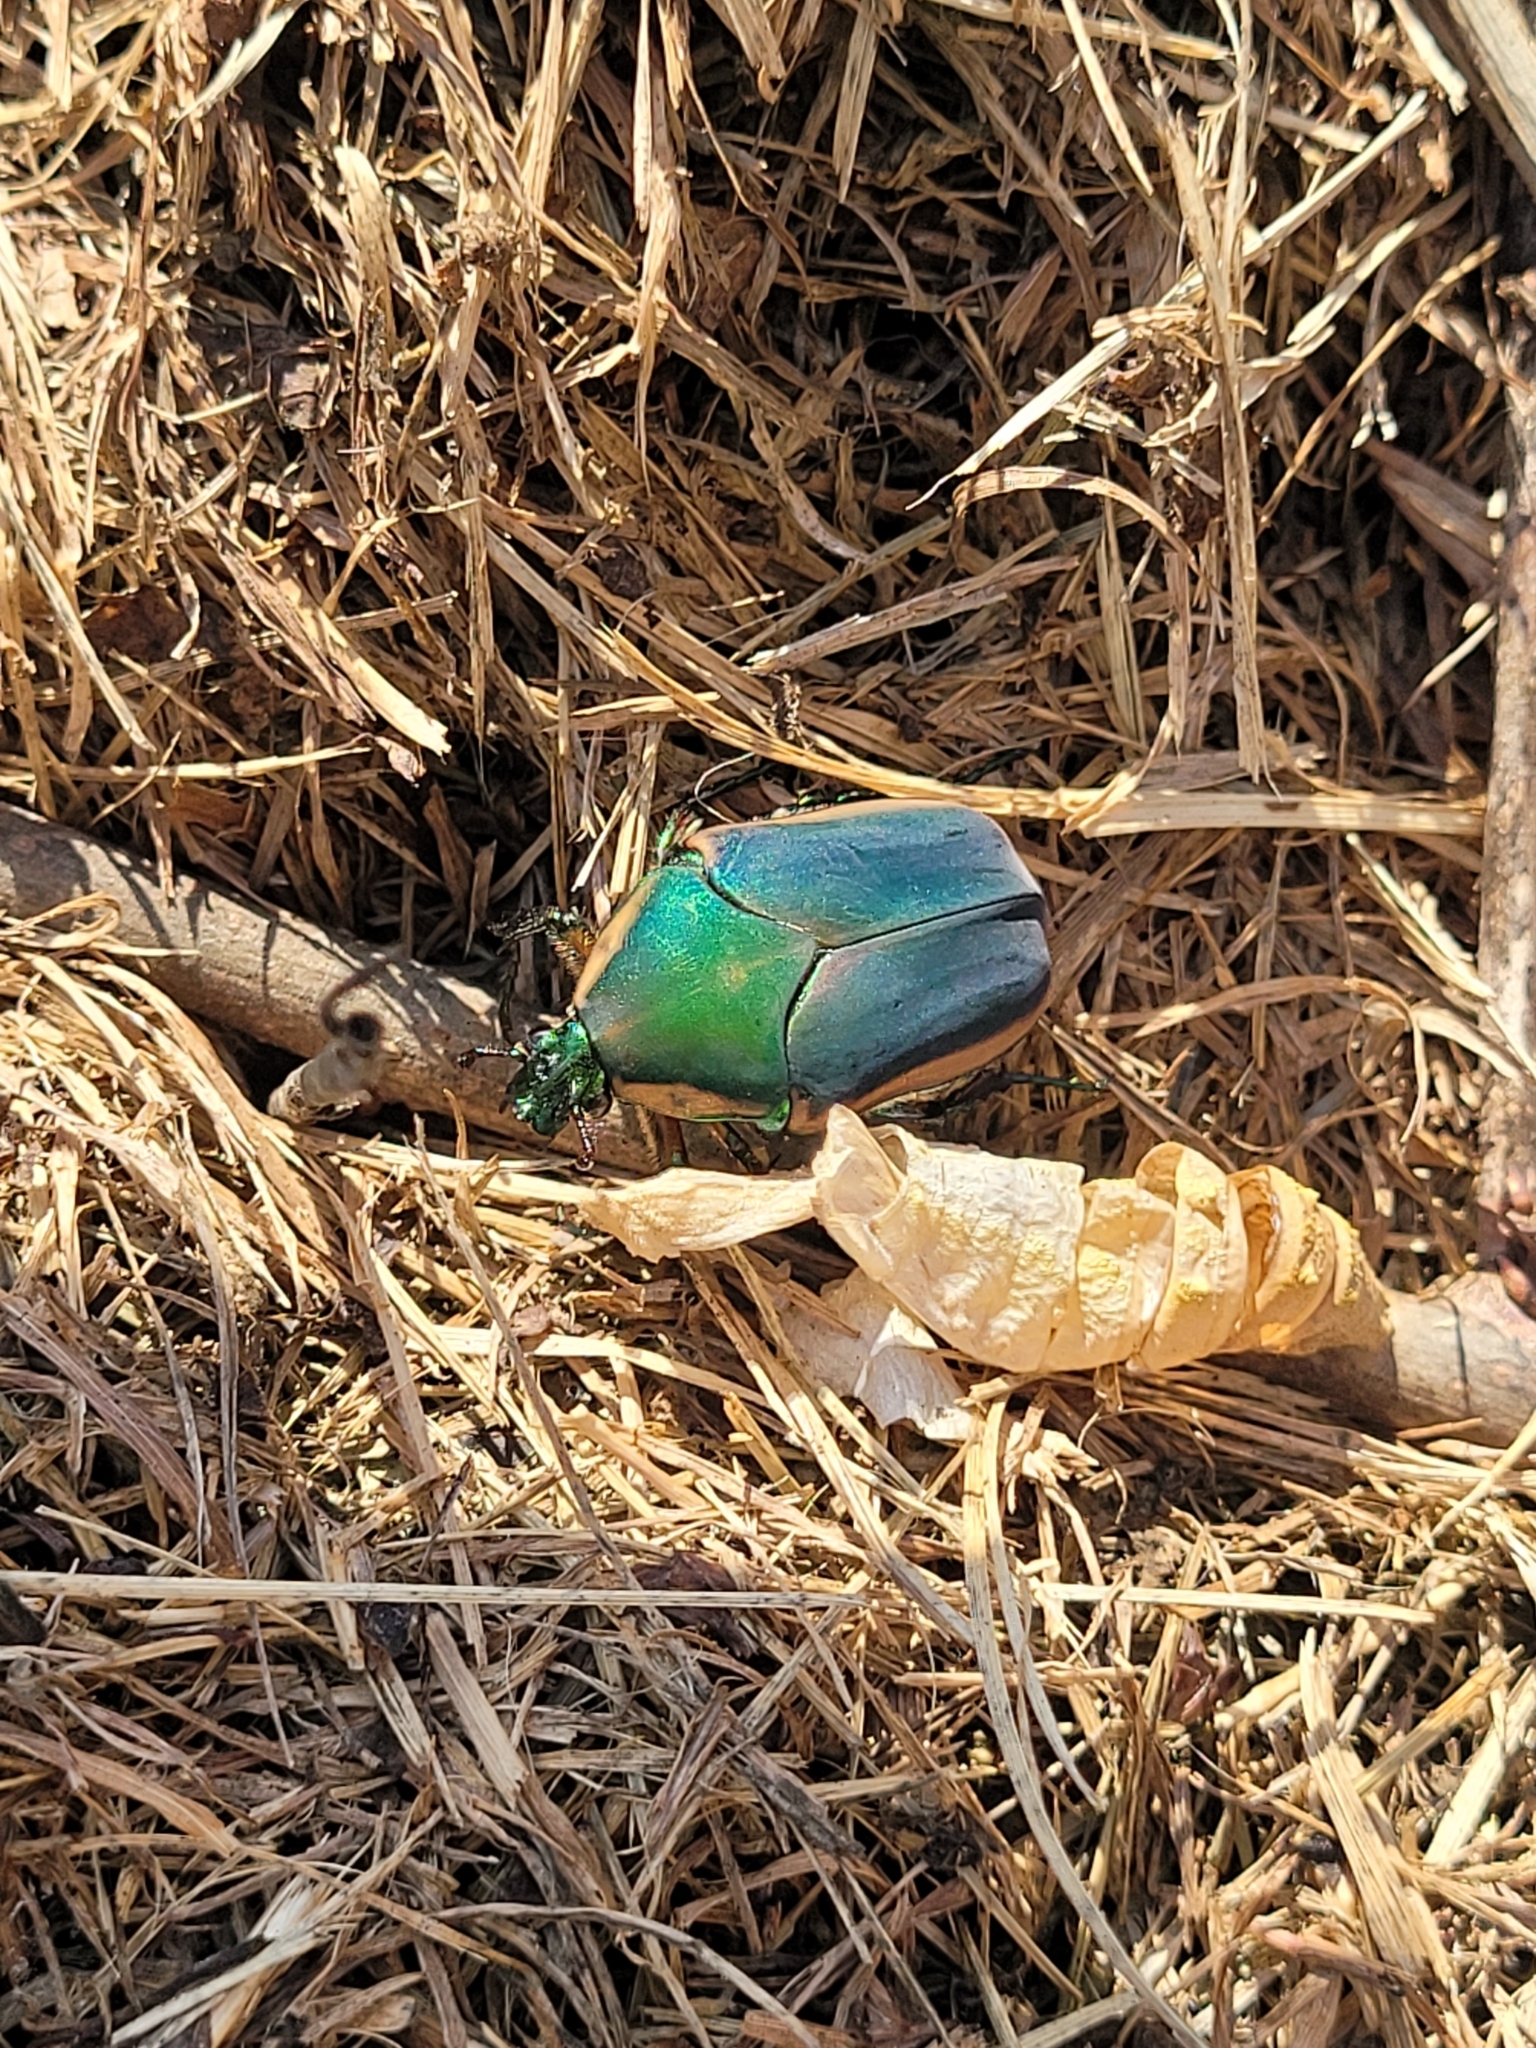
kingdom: Animalia
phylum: Arthropoda
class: Insecta
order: Coleoptera
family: Scarabaeidae
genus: Cotinis
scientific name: Cotinis nitida
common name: Common green june beetle
